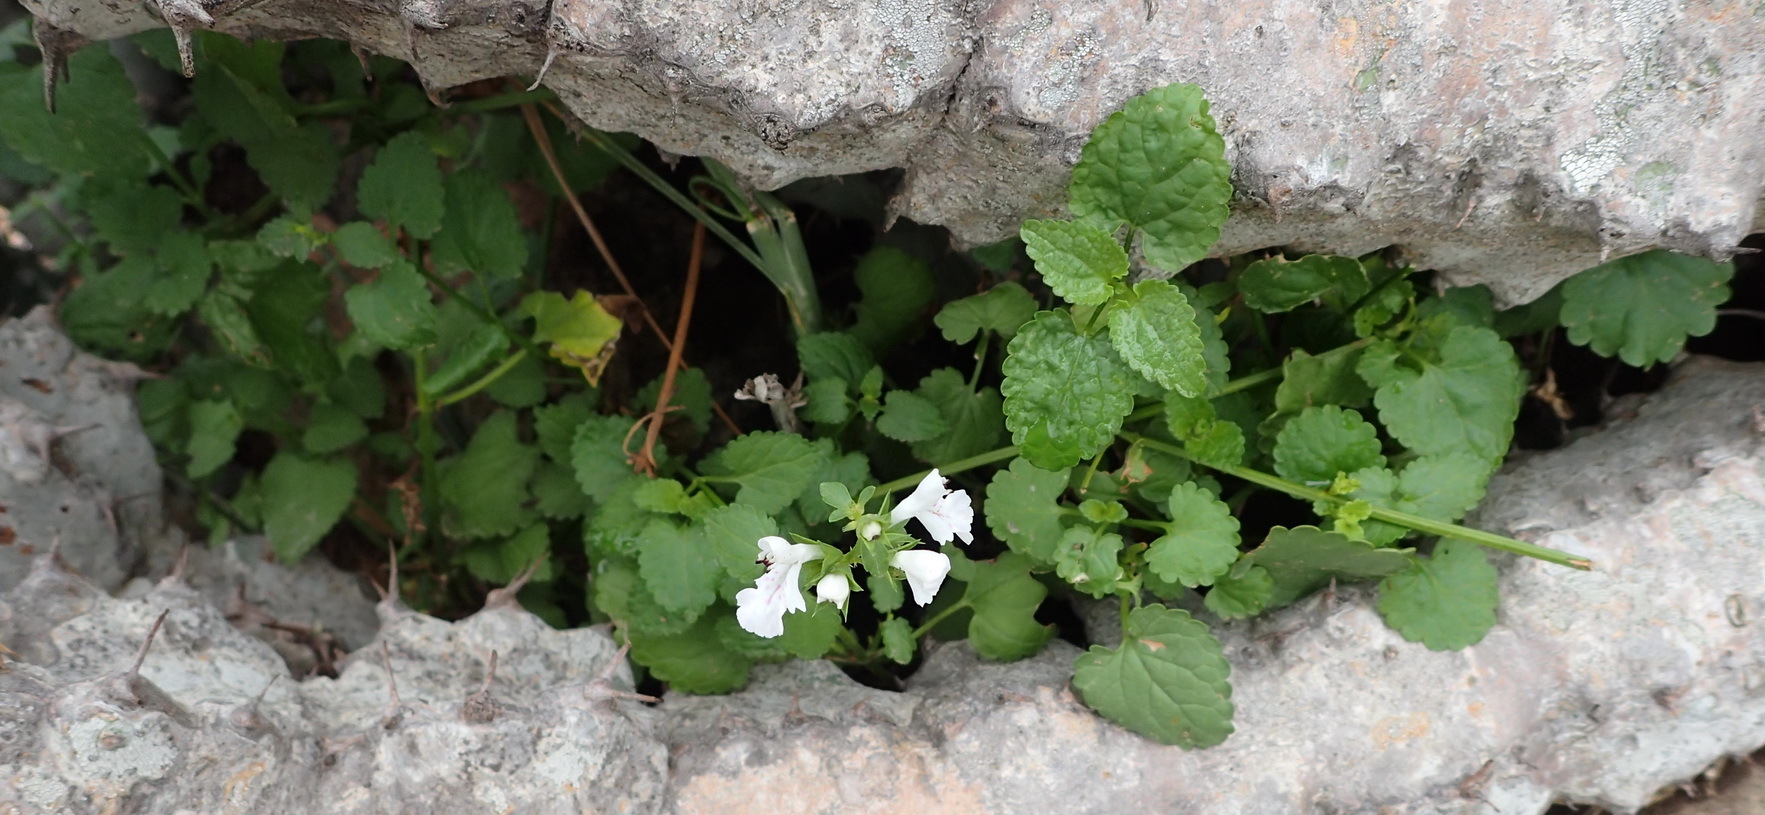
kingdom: Plantae
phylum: Tracheophyta
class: Magnoliopsida
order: Lamiales
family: Lamiaceae
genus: Stachys
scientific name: Stachys aethiopica
